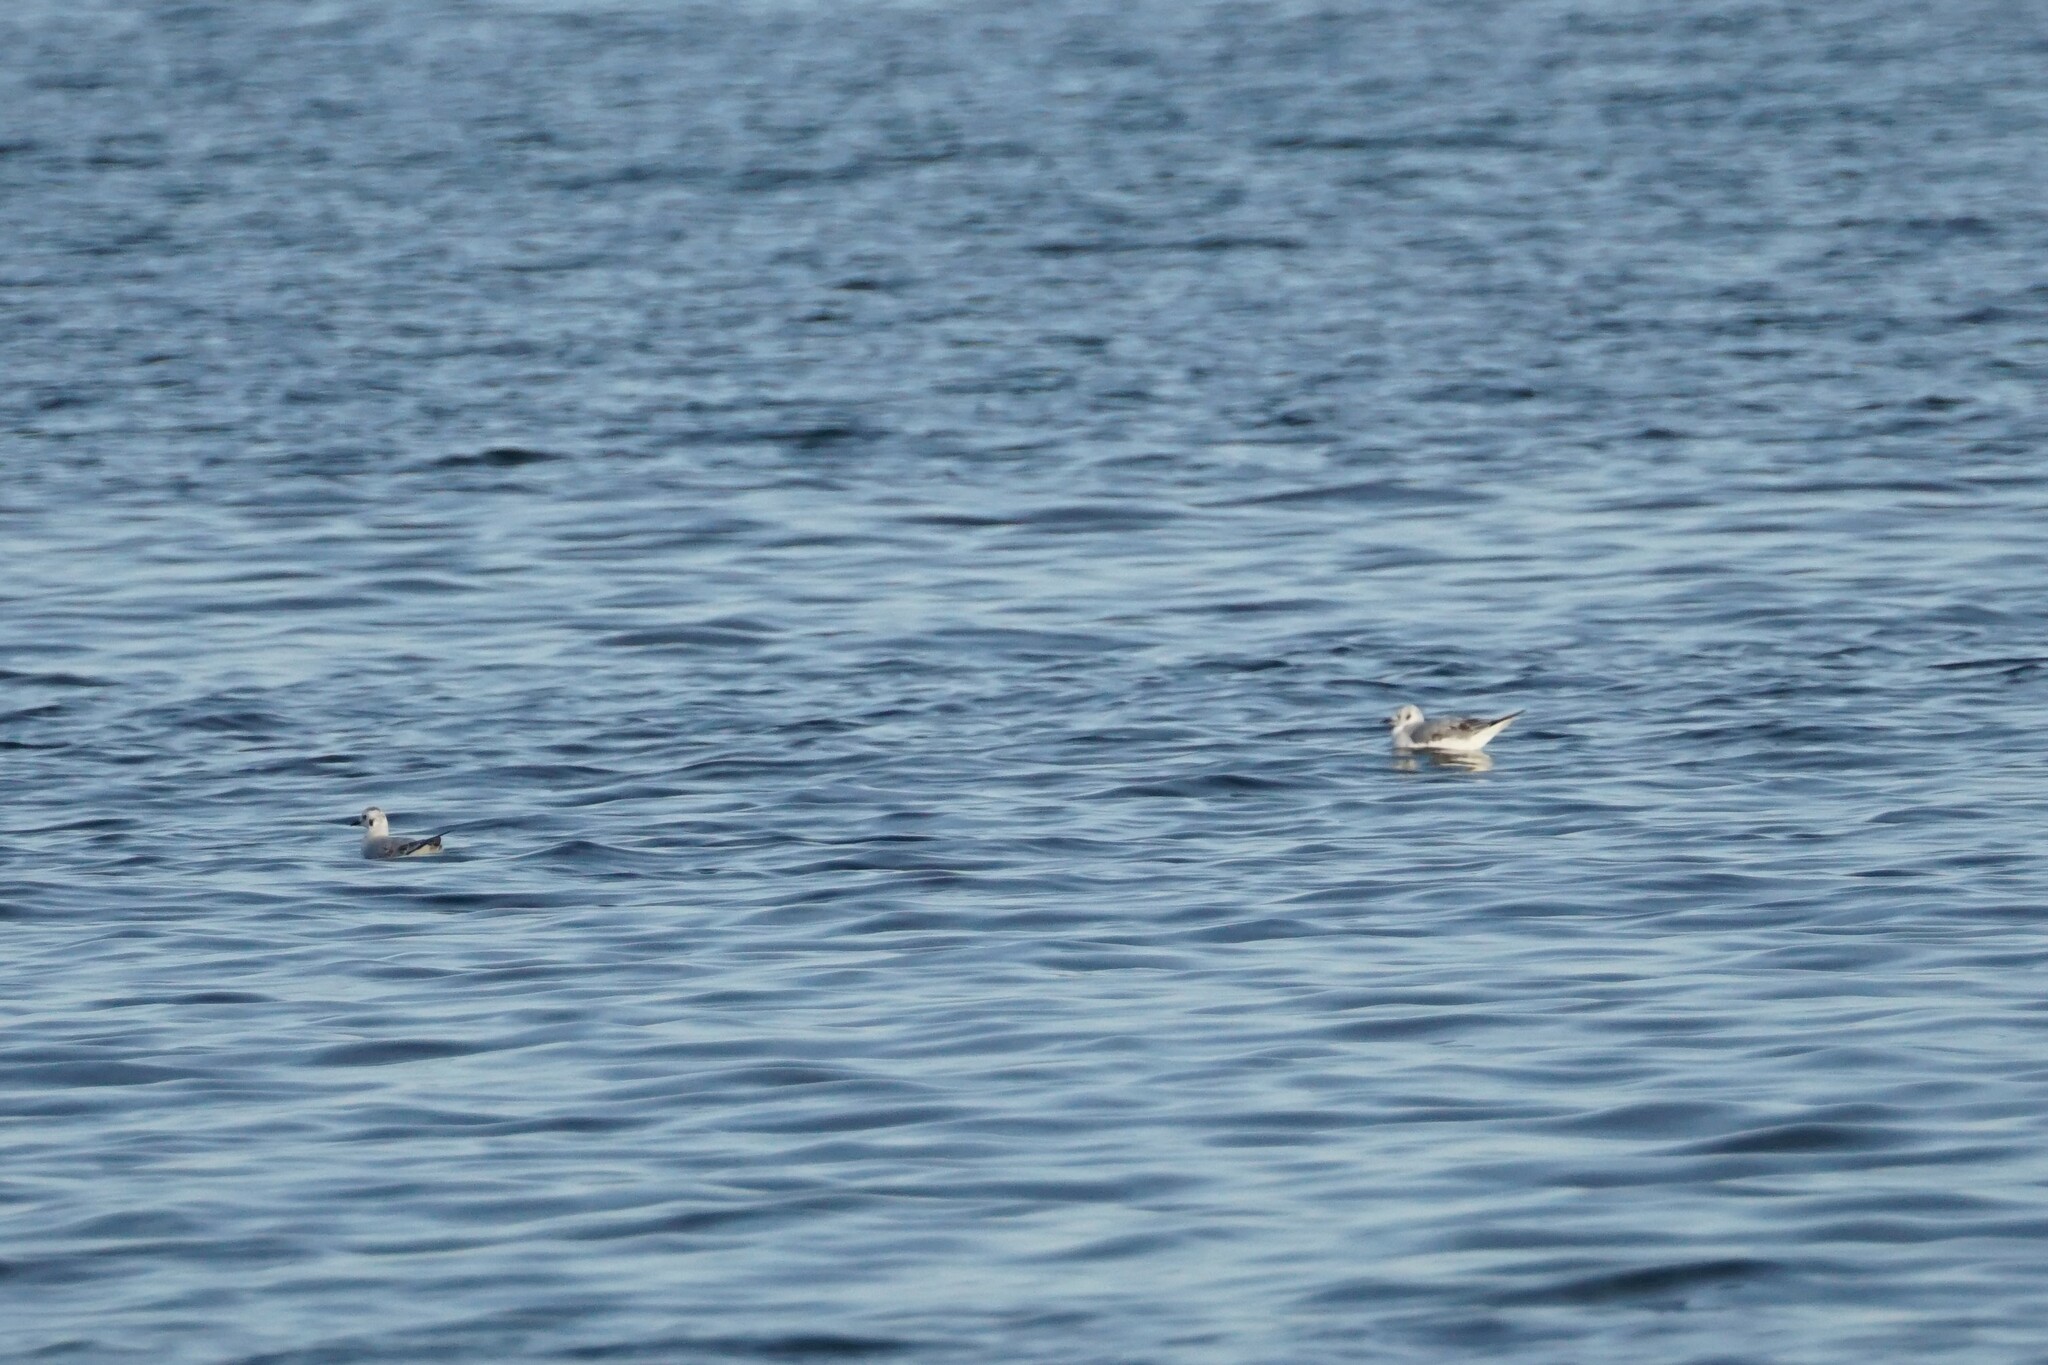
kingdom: Animalia
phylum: Chordata
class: Aves
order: Charadriiformes
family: Laridae
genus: Chroicocephalus
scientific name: Chroicocephalus philadelphia
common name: Bonaparte's gull
